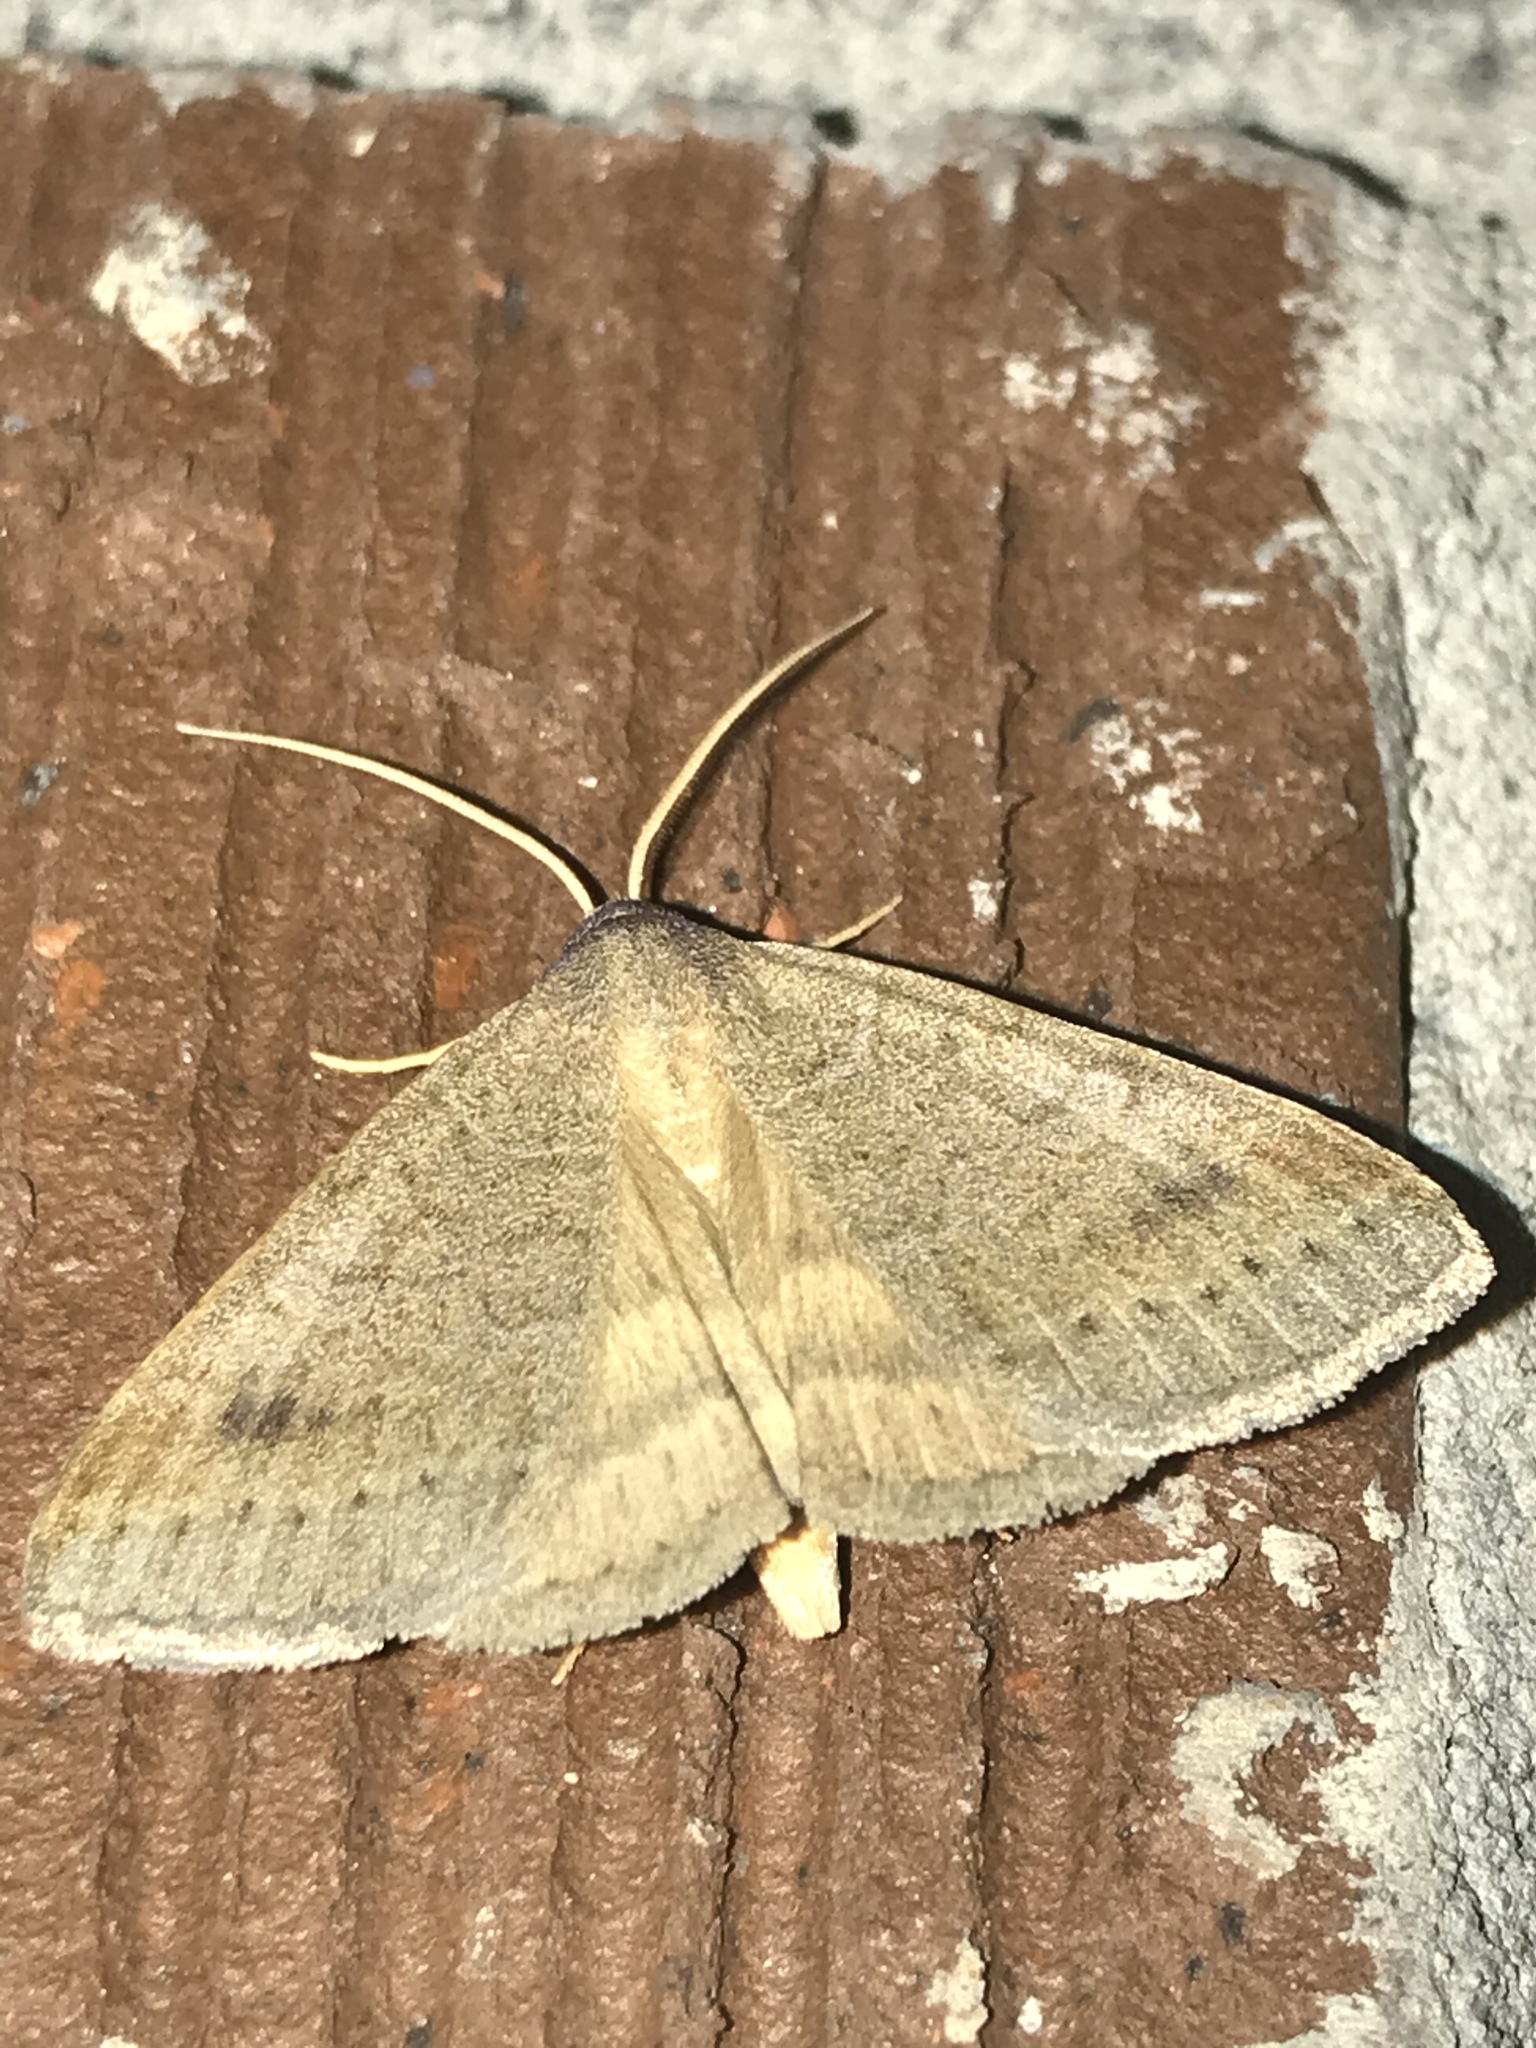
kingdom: Animalia
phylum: Arthropoda
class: Insecta
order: Lepidoptera
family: Erebidae
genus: Caenurgia
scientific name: Caenurgia chloropha
